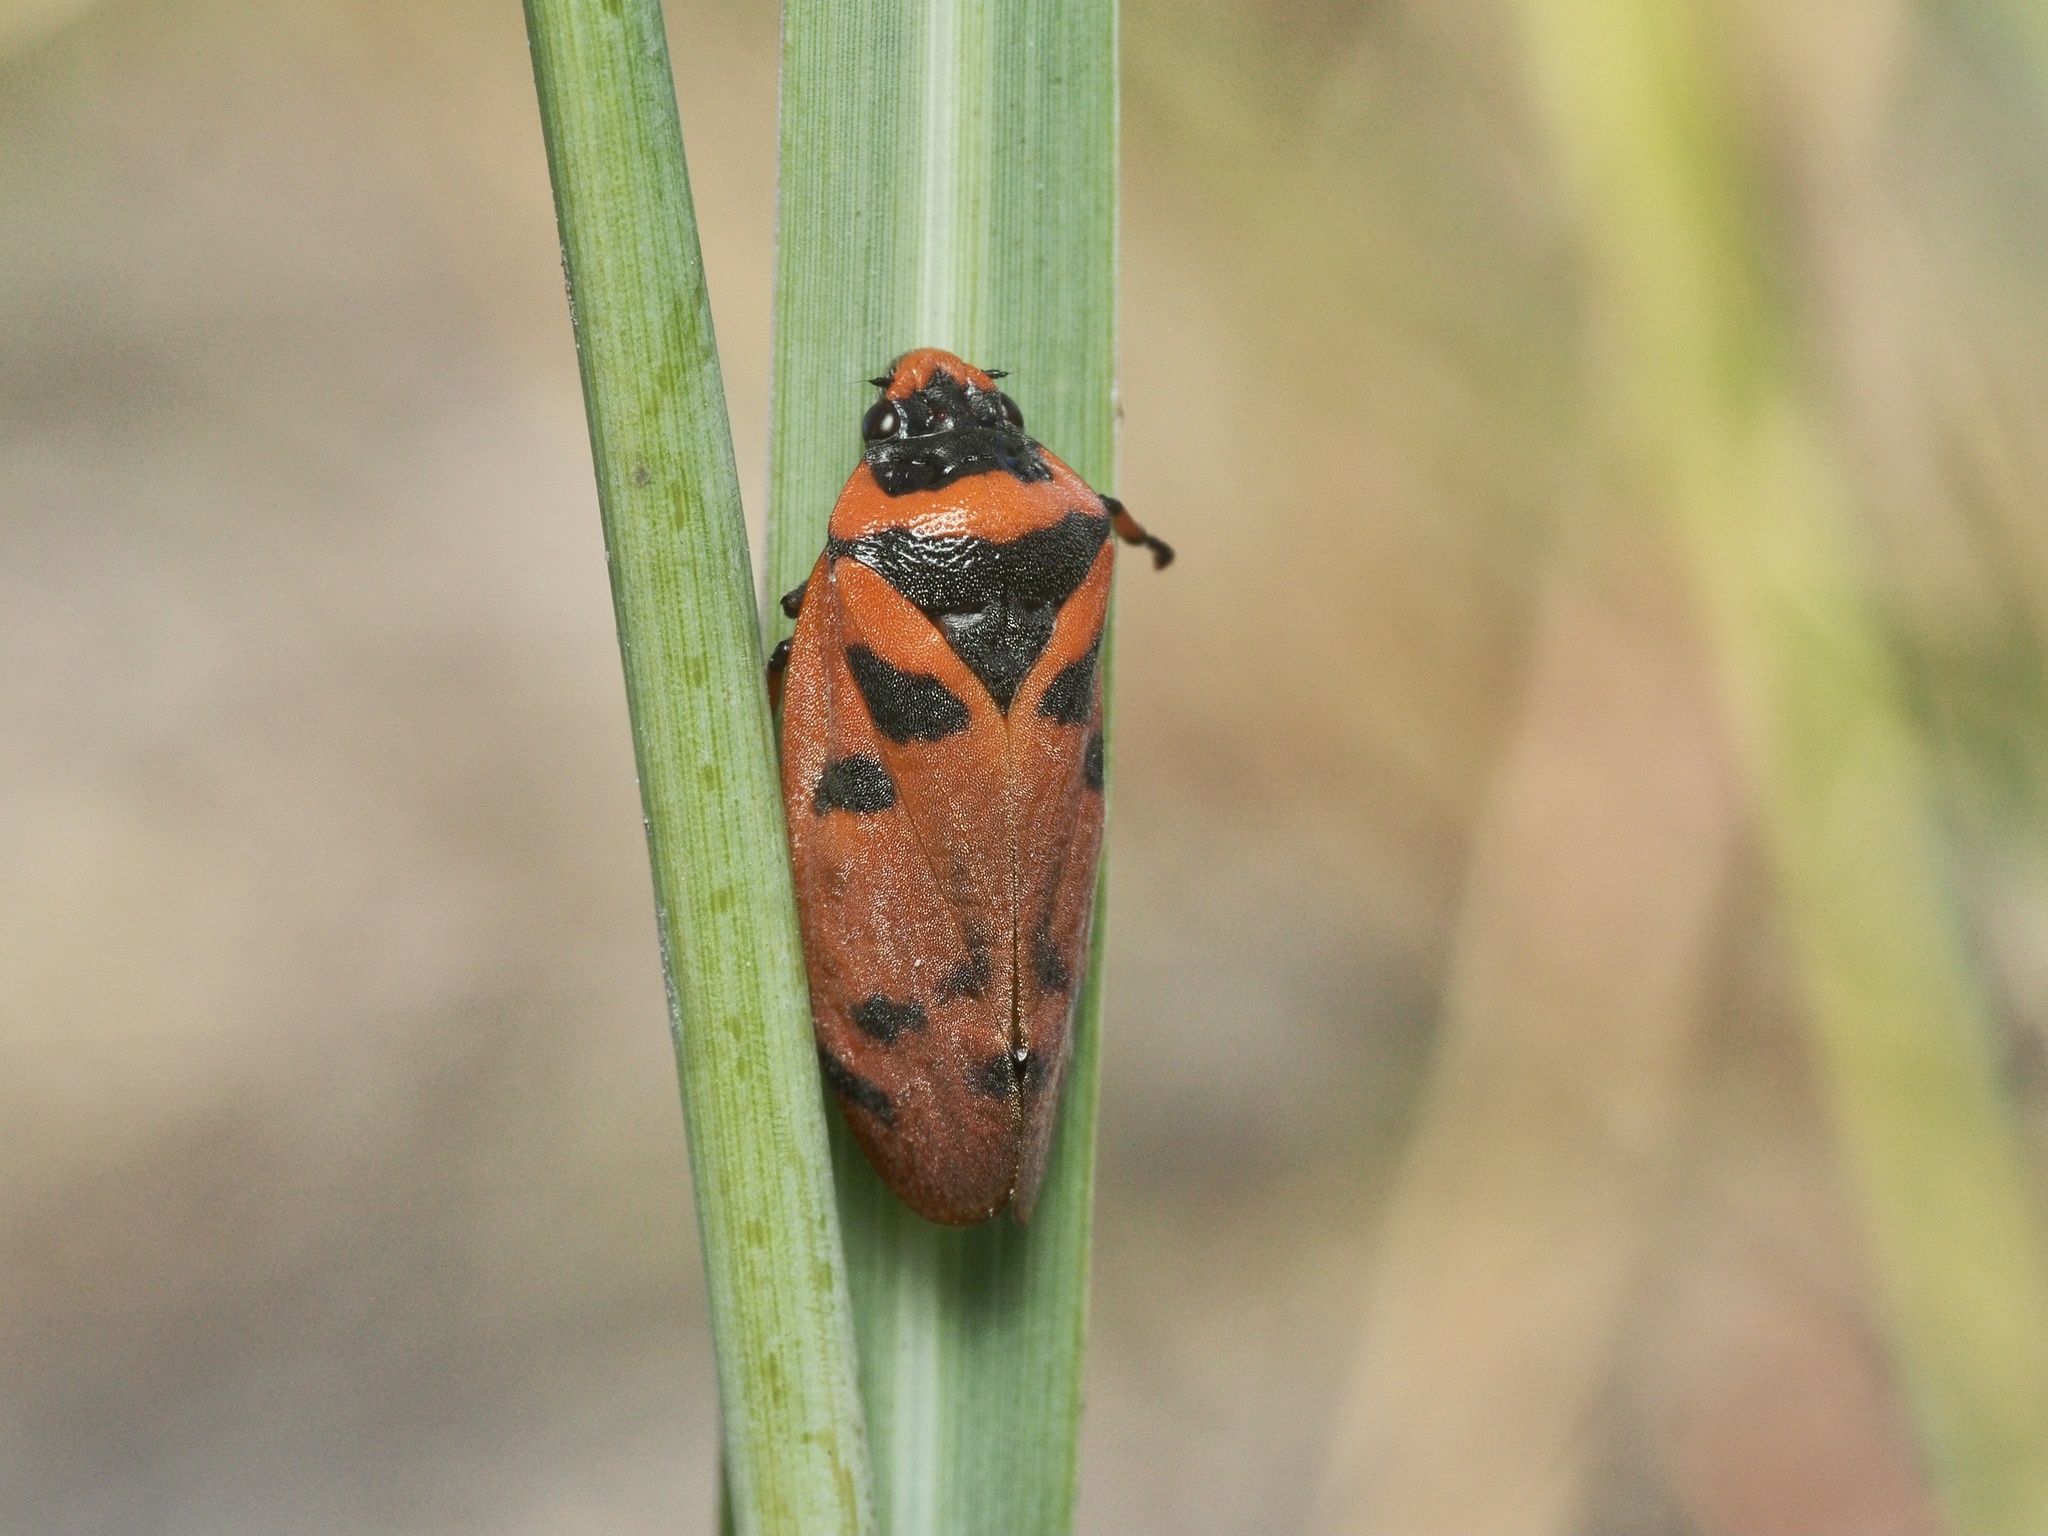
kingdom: Animalia
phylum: Arthropoda
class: Insecta
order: Hemiptera
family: Cercopidae
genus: Locris
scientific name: Locris arithmetica
